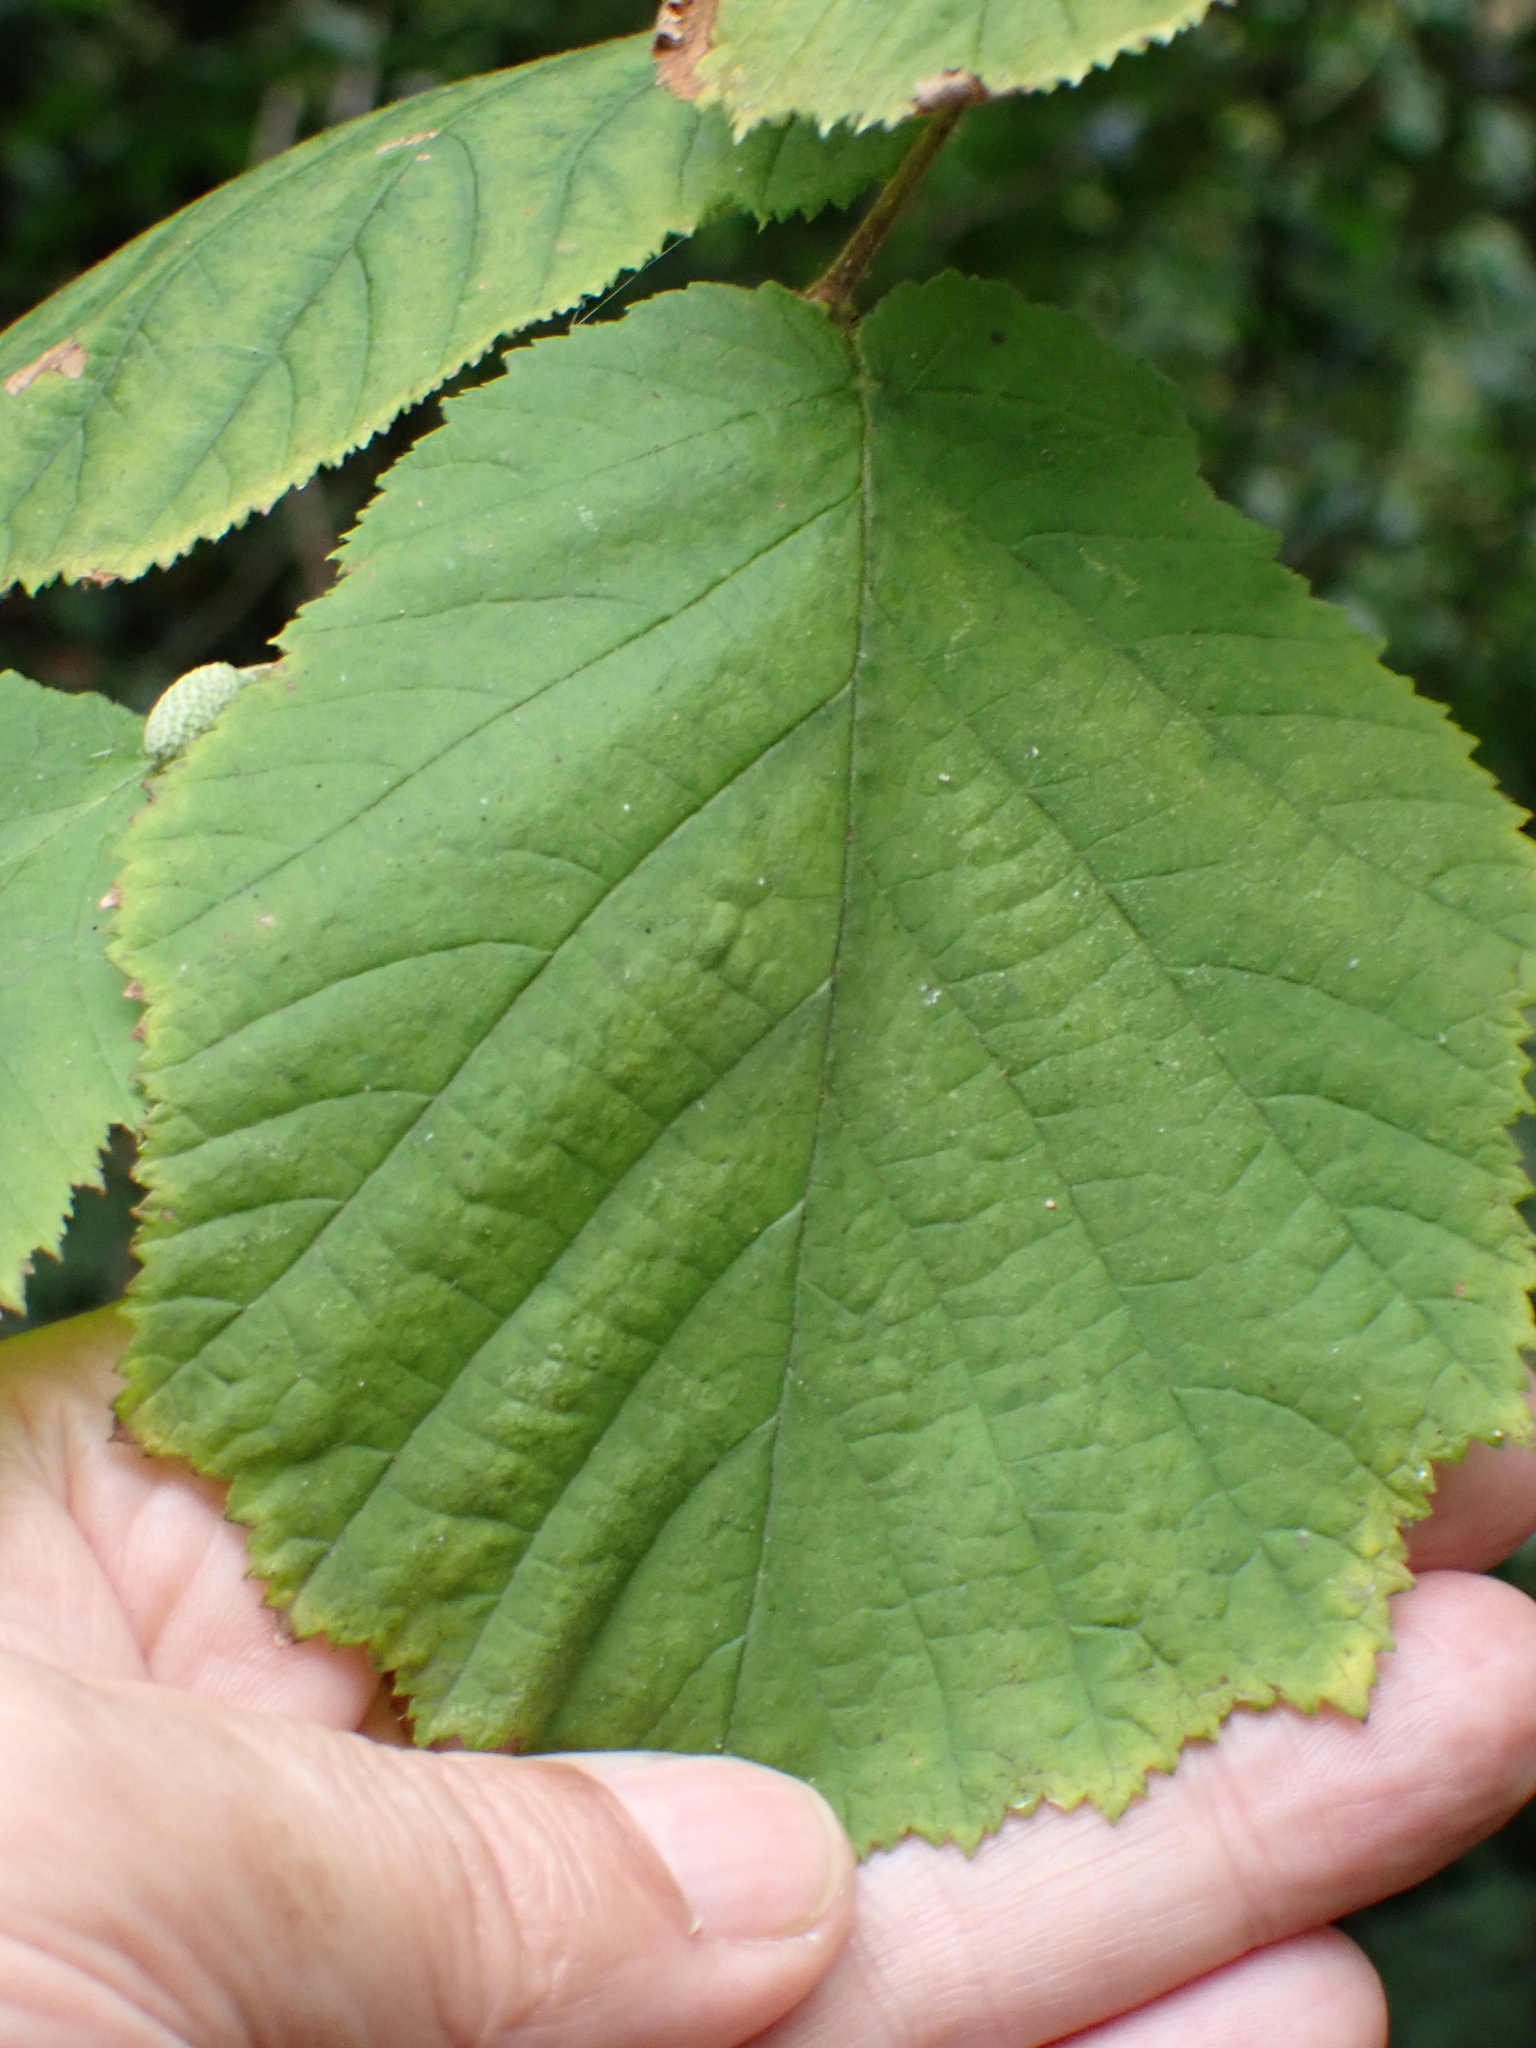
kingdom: Plantae
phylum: Tracheophyta
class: Magnoliopsida
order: Fagales
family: Betulaceae
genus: Corylus
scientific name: Corylus avellana
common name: European hazel
